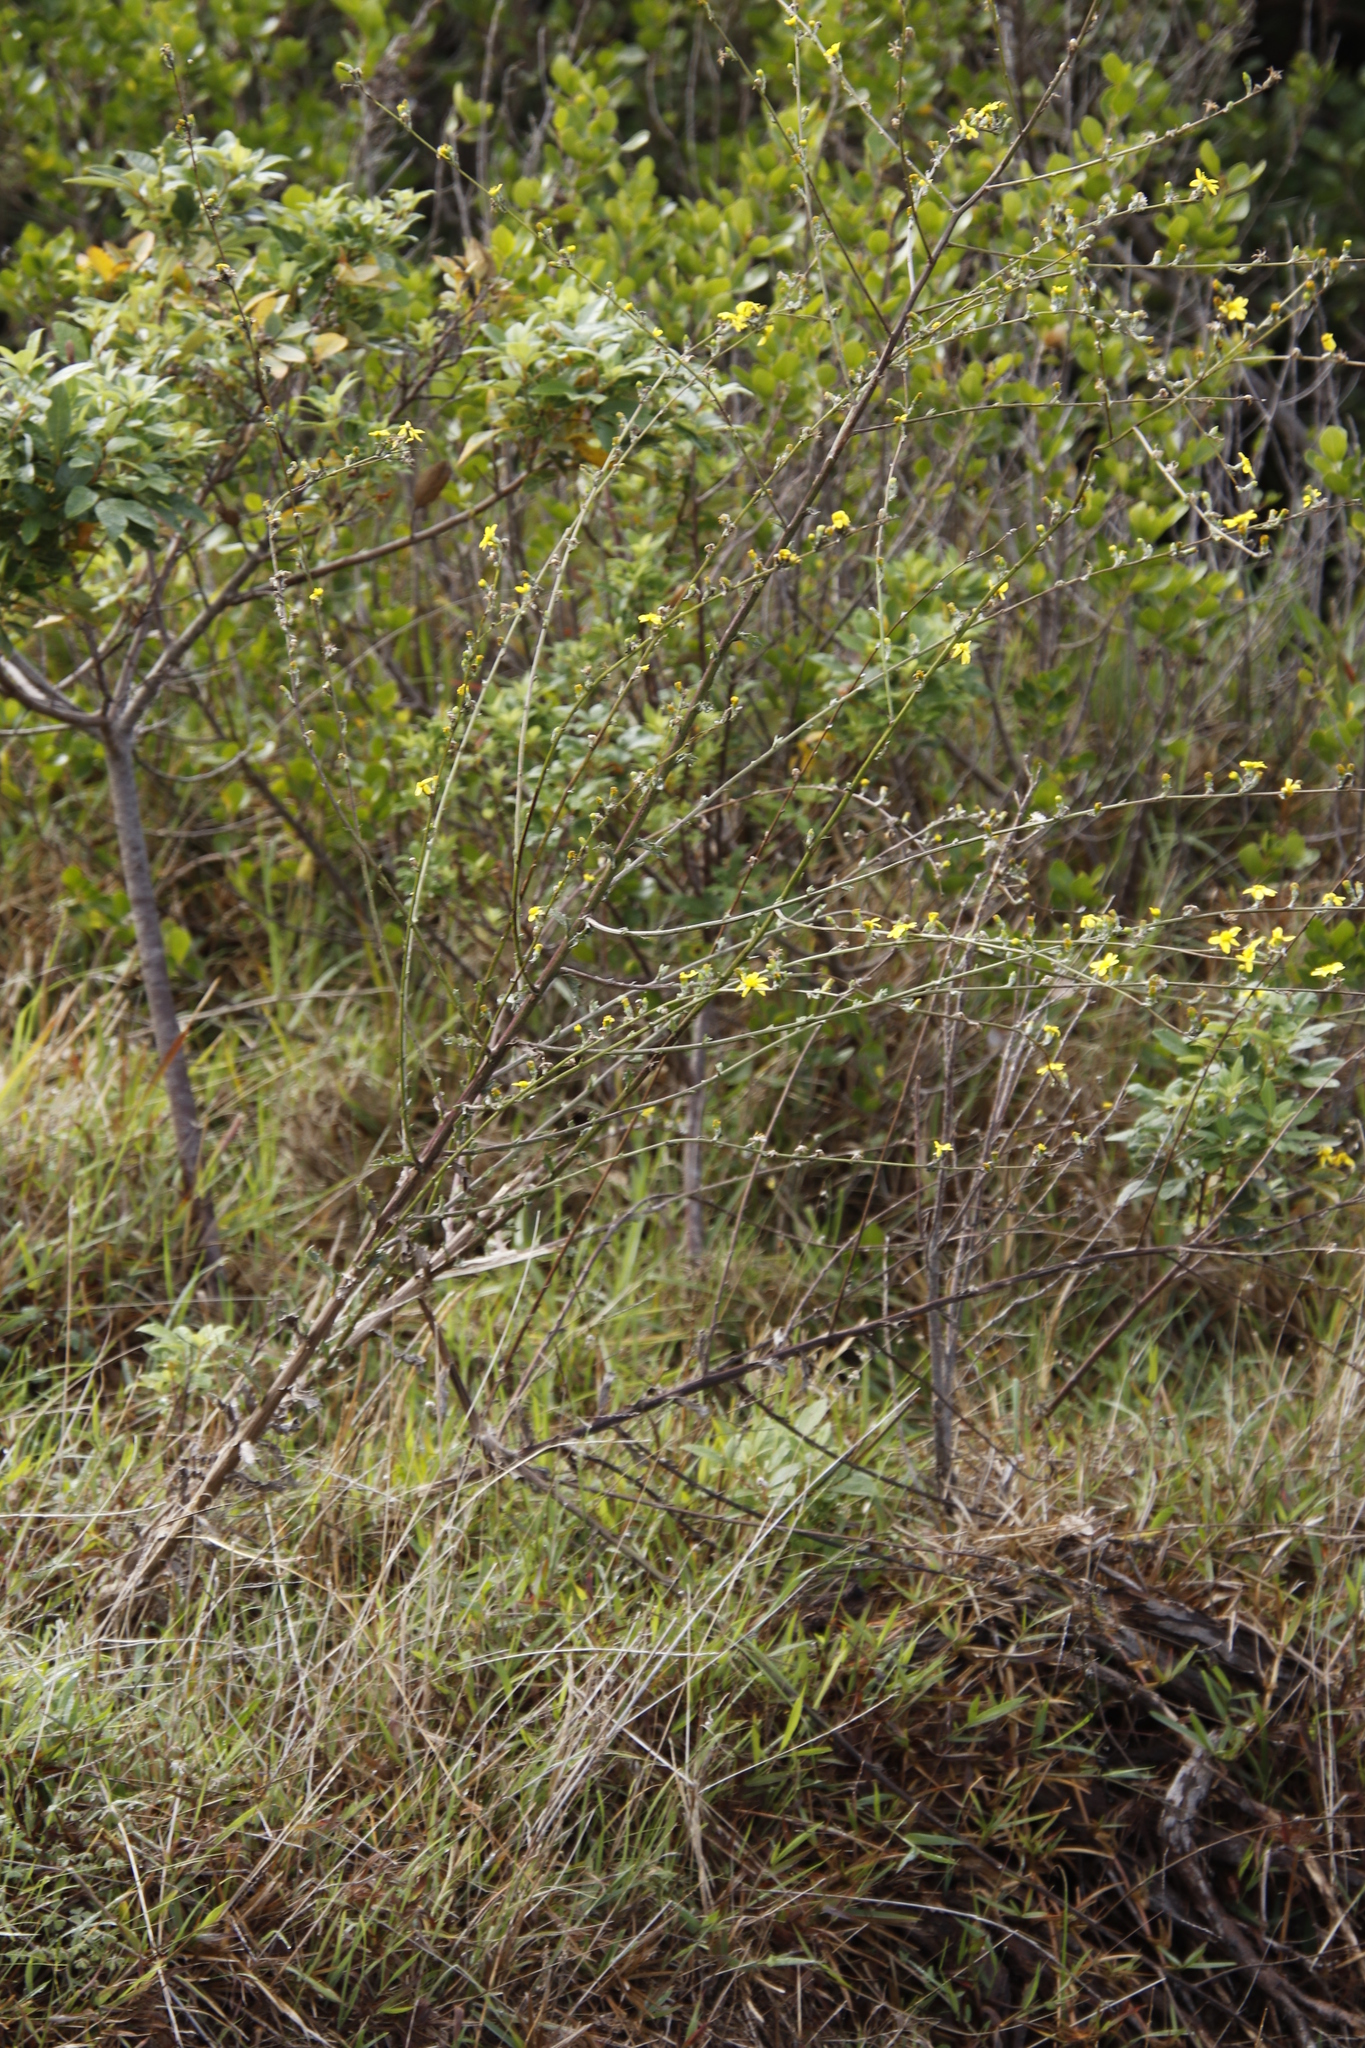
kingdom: Plantae
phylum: Tracheophyta
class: Magnoliopsida
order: Asterales
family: Asteraceae
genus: Senecio
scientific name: Senecio pubigerus
